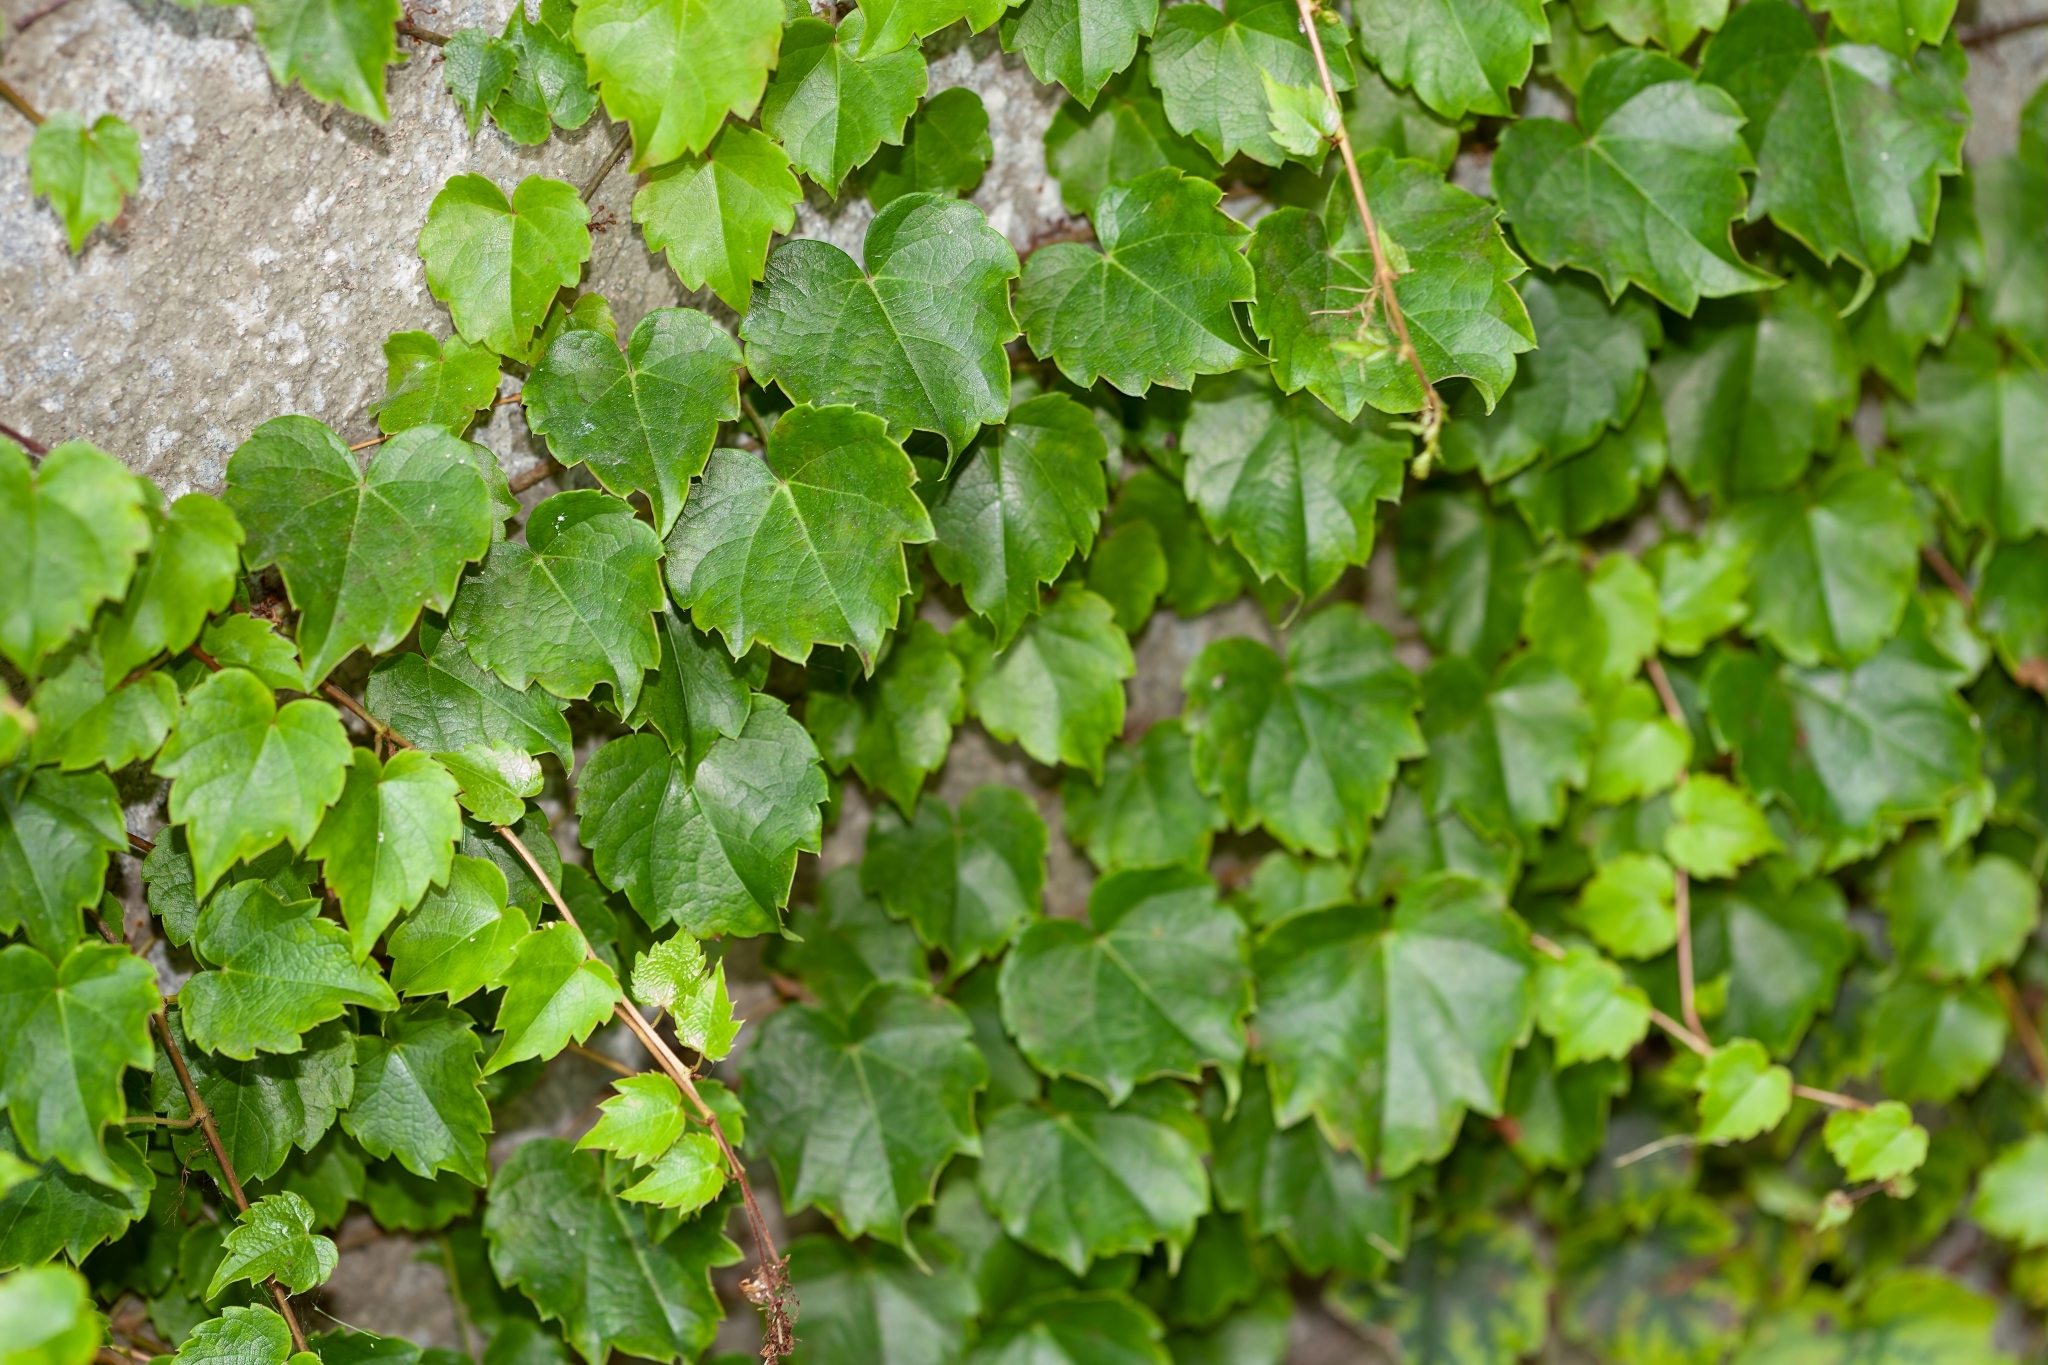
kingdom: Plantae
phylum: Tracheophyta
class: Magnoliopsida
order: Vitales
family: Vitaceae
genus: Parthenocissus
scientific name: Parthenocissus tricuspidata
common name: Boston ivy
